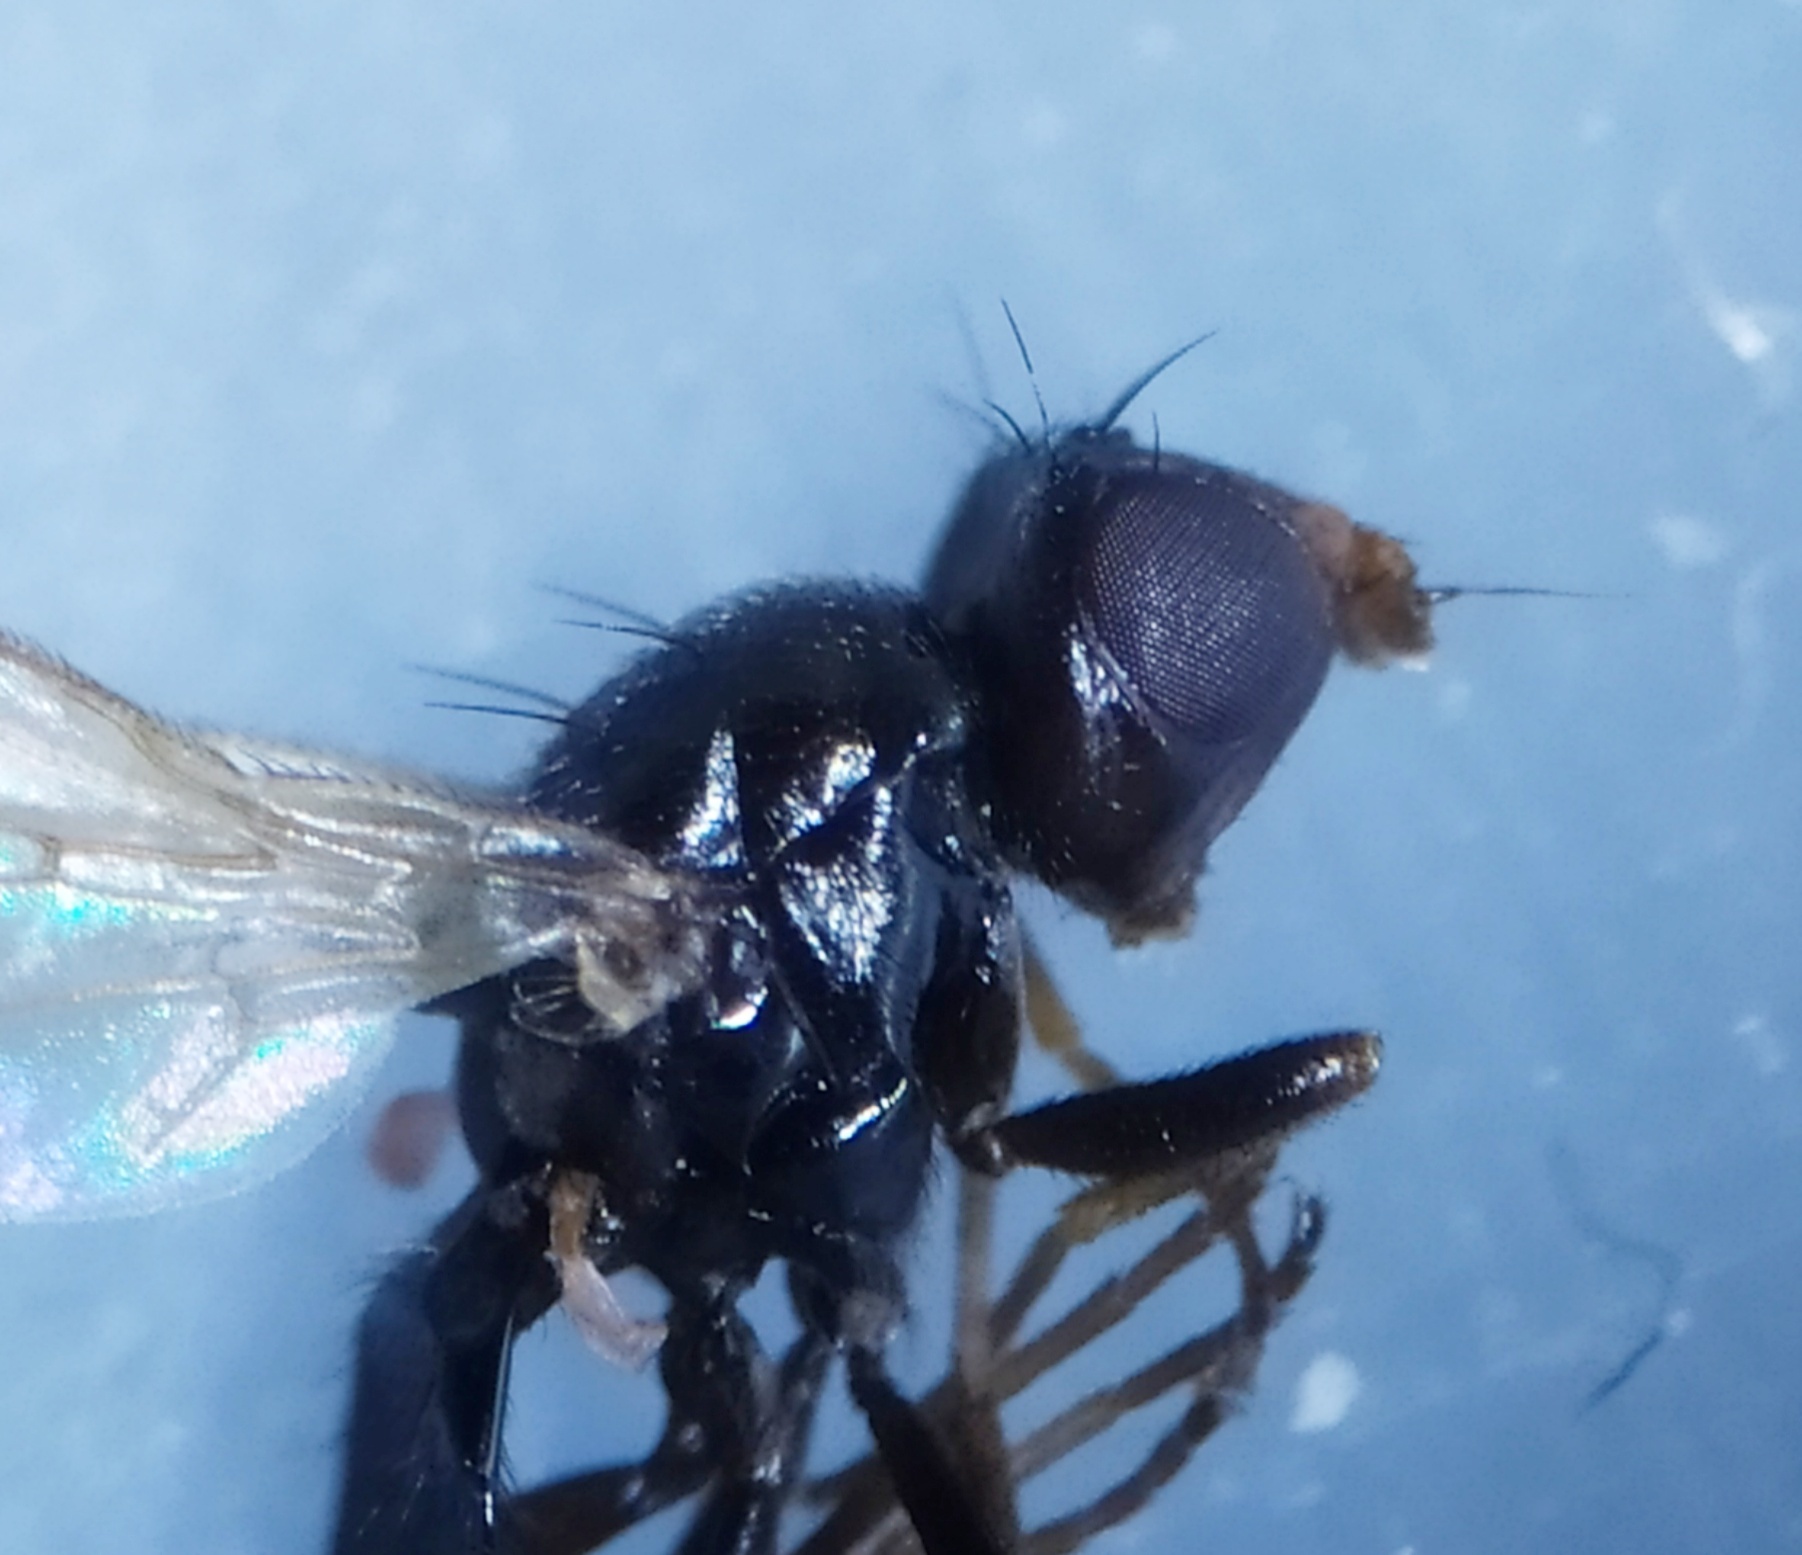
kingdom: Animalia
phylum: Arthropoda
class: Insecta
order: Diptera
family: Psilidae
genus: Chamaepsila
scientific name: Chamaepsila nigra
